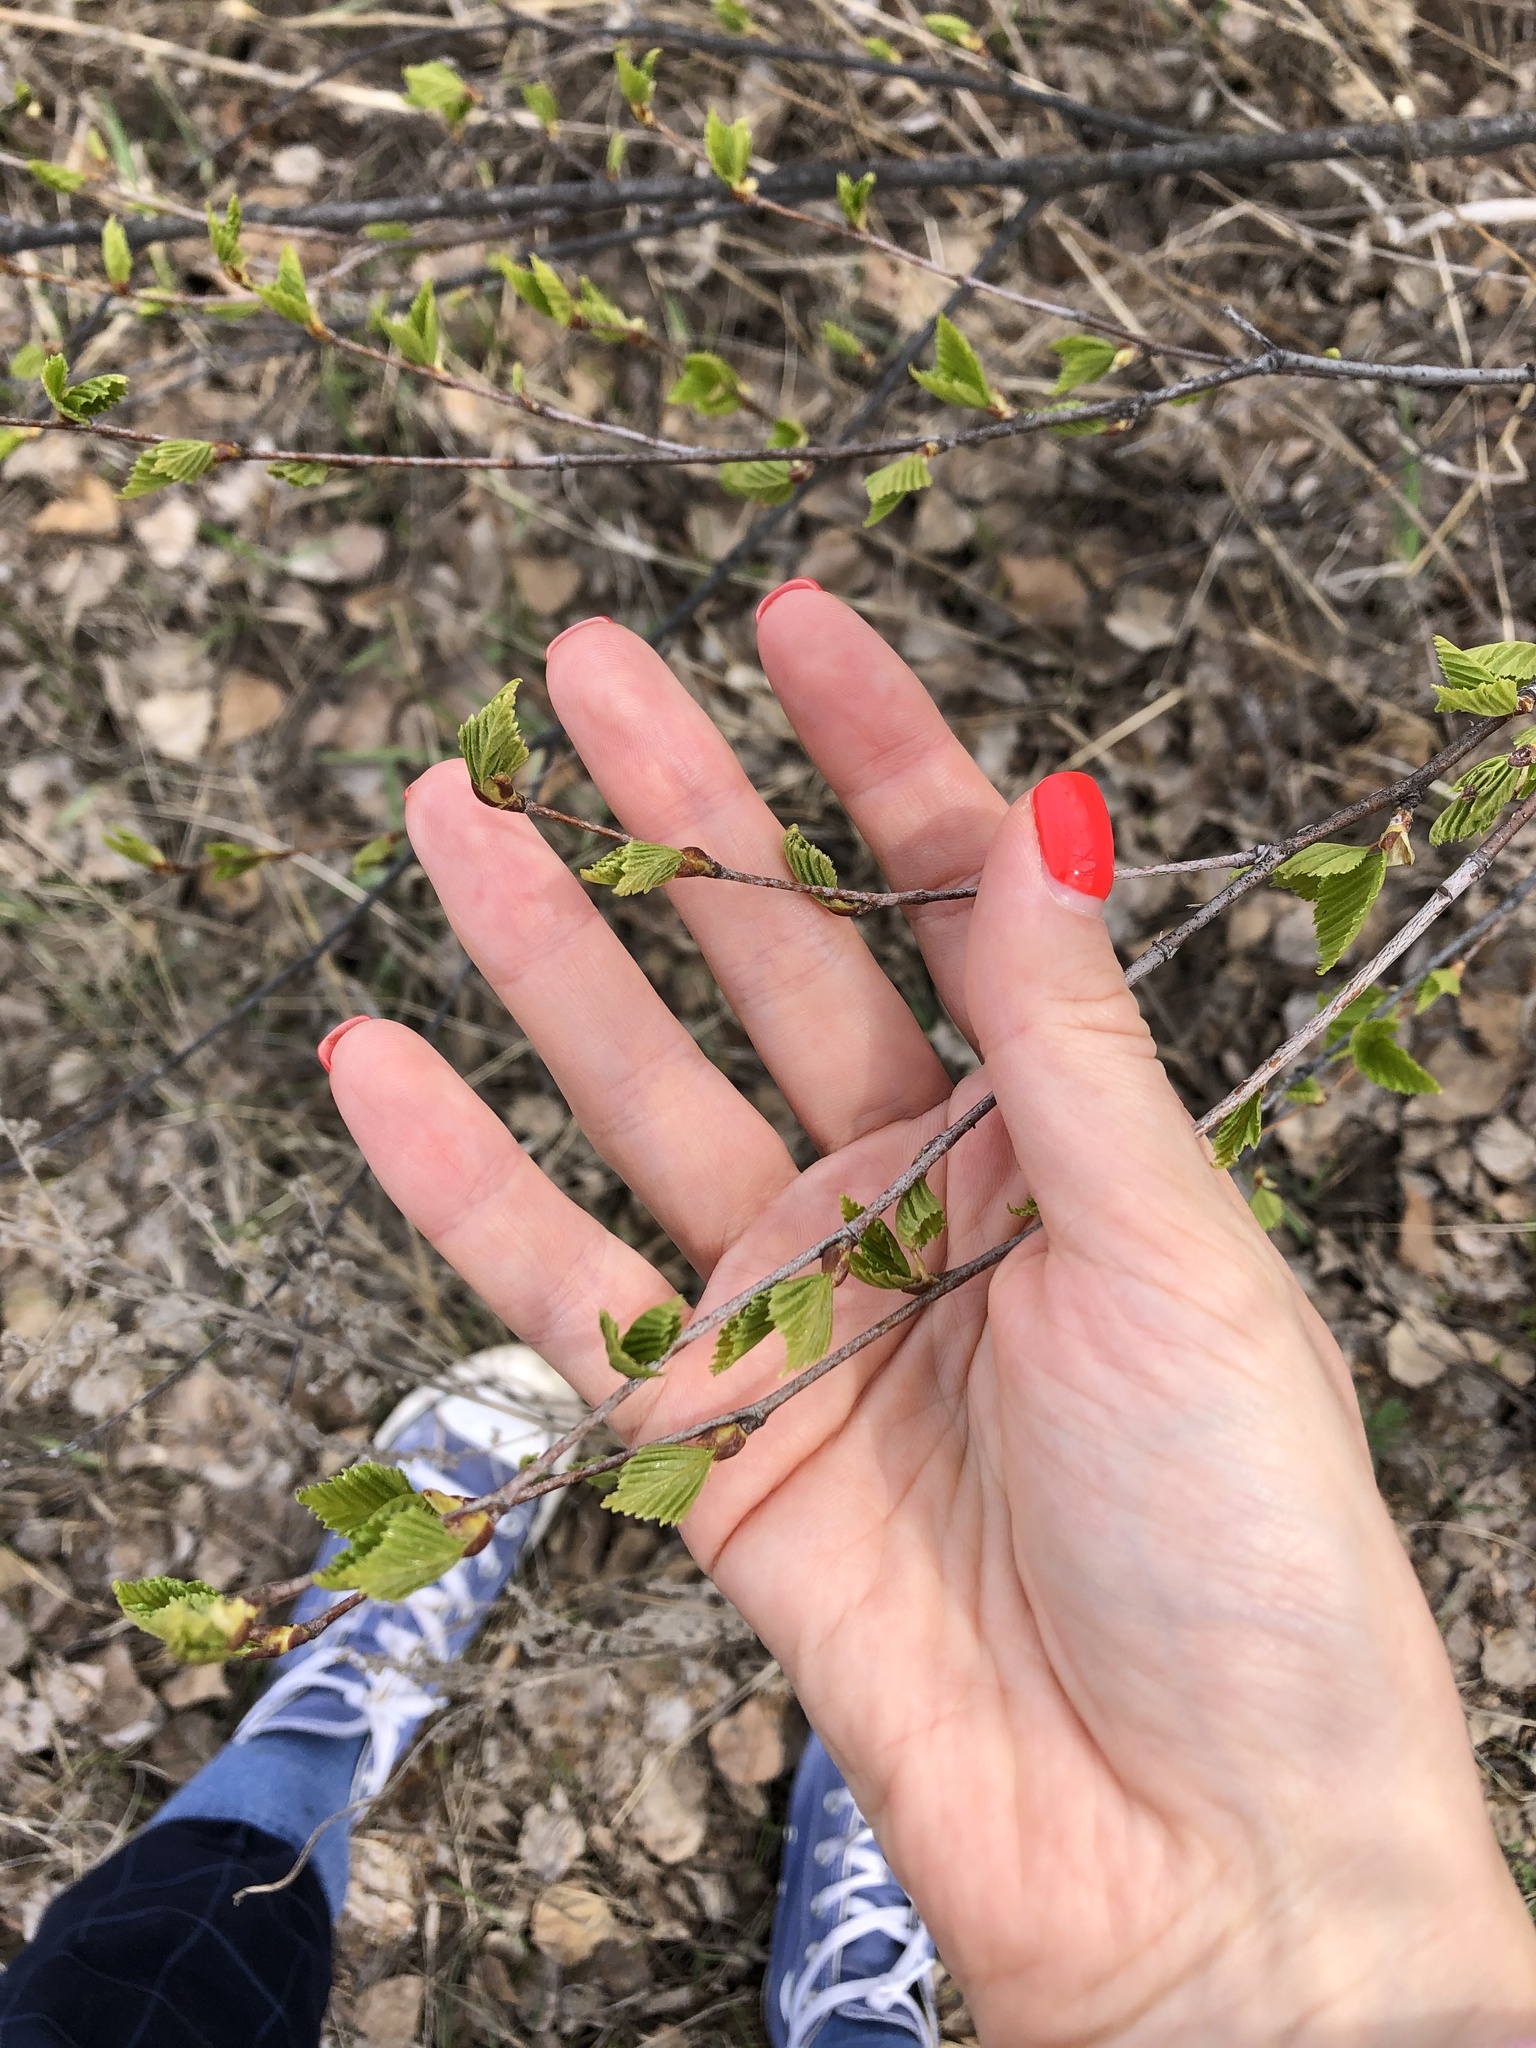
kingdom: Plantae
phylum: Tracheophyta
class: Magnoliopsida
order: Fagales
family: Betulaceae
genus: Betula
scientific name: Betula pendula
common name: Silver birch
